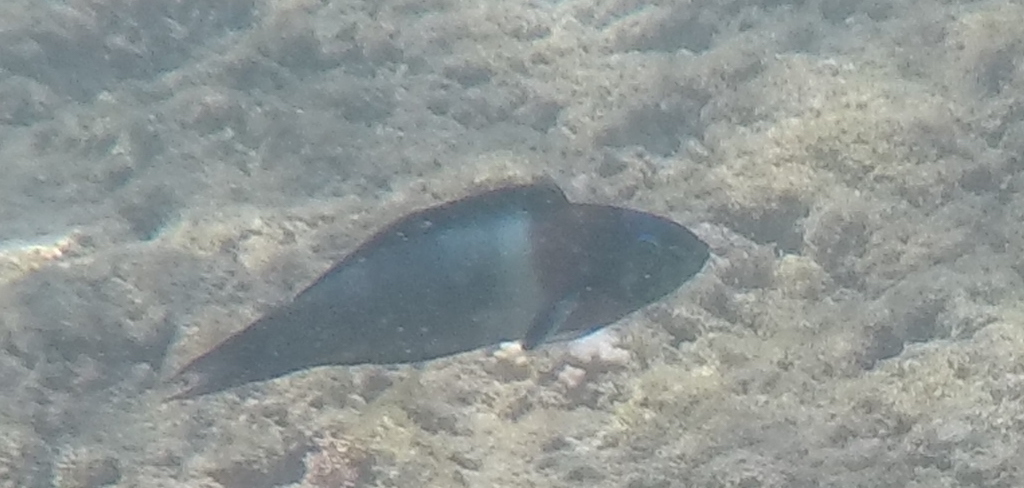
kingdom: Animalia
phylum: Chordata
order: Perciformes
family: Labridae
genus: Thalassoma
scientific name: Thalassoma duperrey
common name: Saddle wrasse
